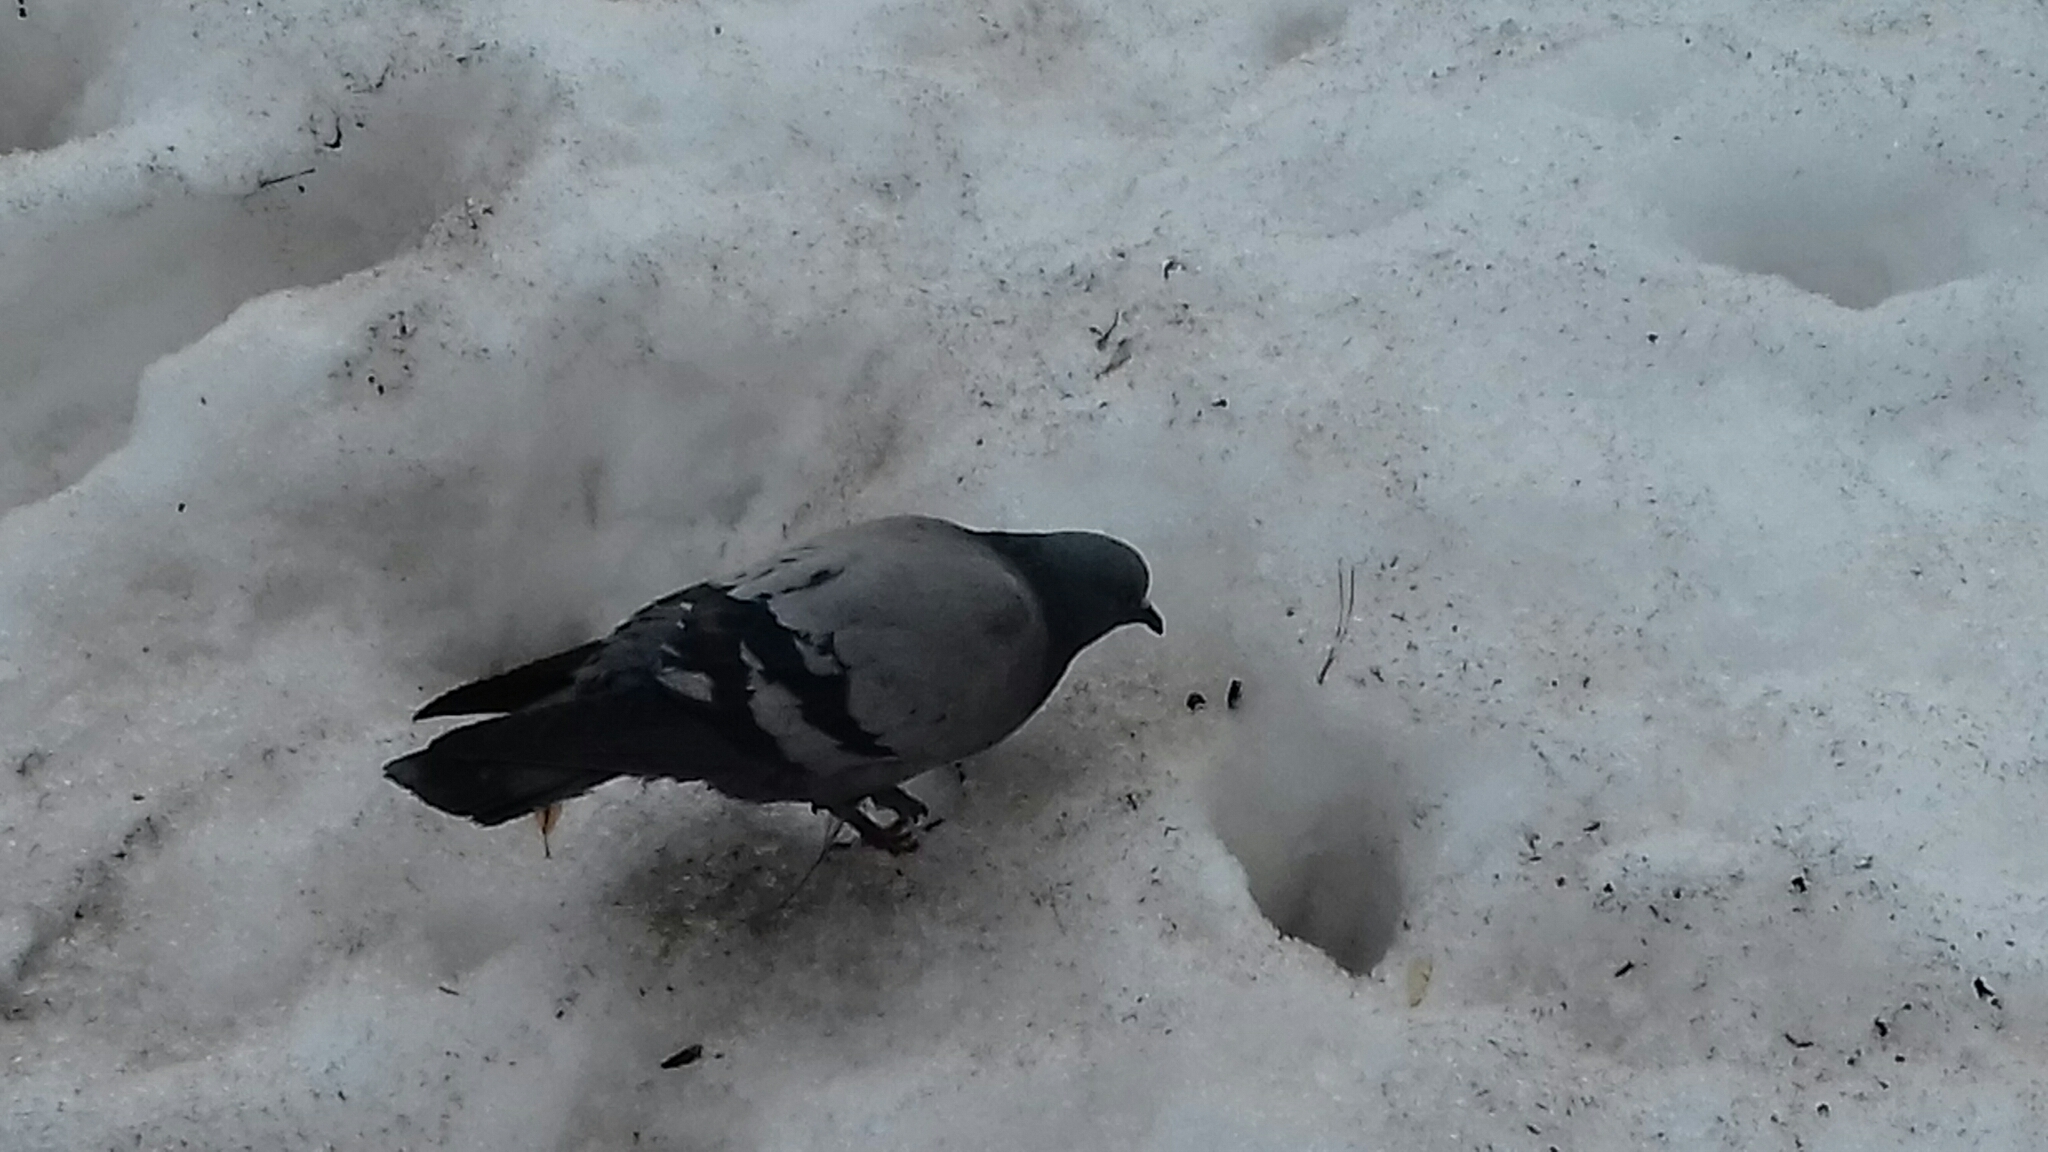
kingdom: Animalia
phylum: Chordata
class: Aves
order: Columbiformes
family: Columbidae
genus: Columba
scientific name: Columba livia
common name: Rock pigeon
